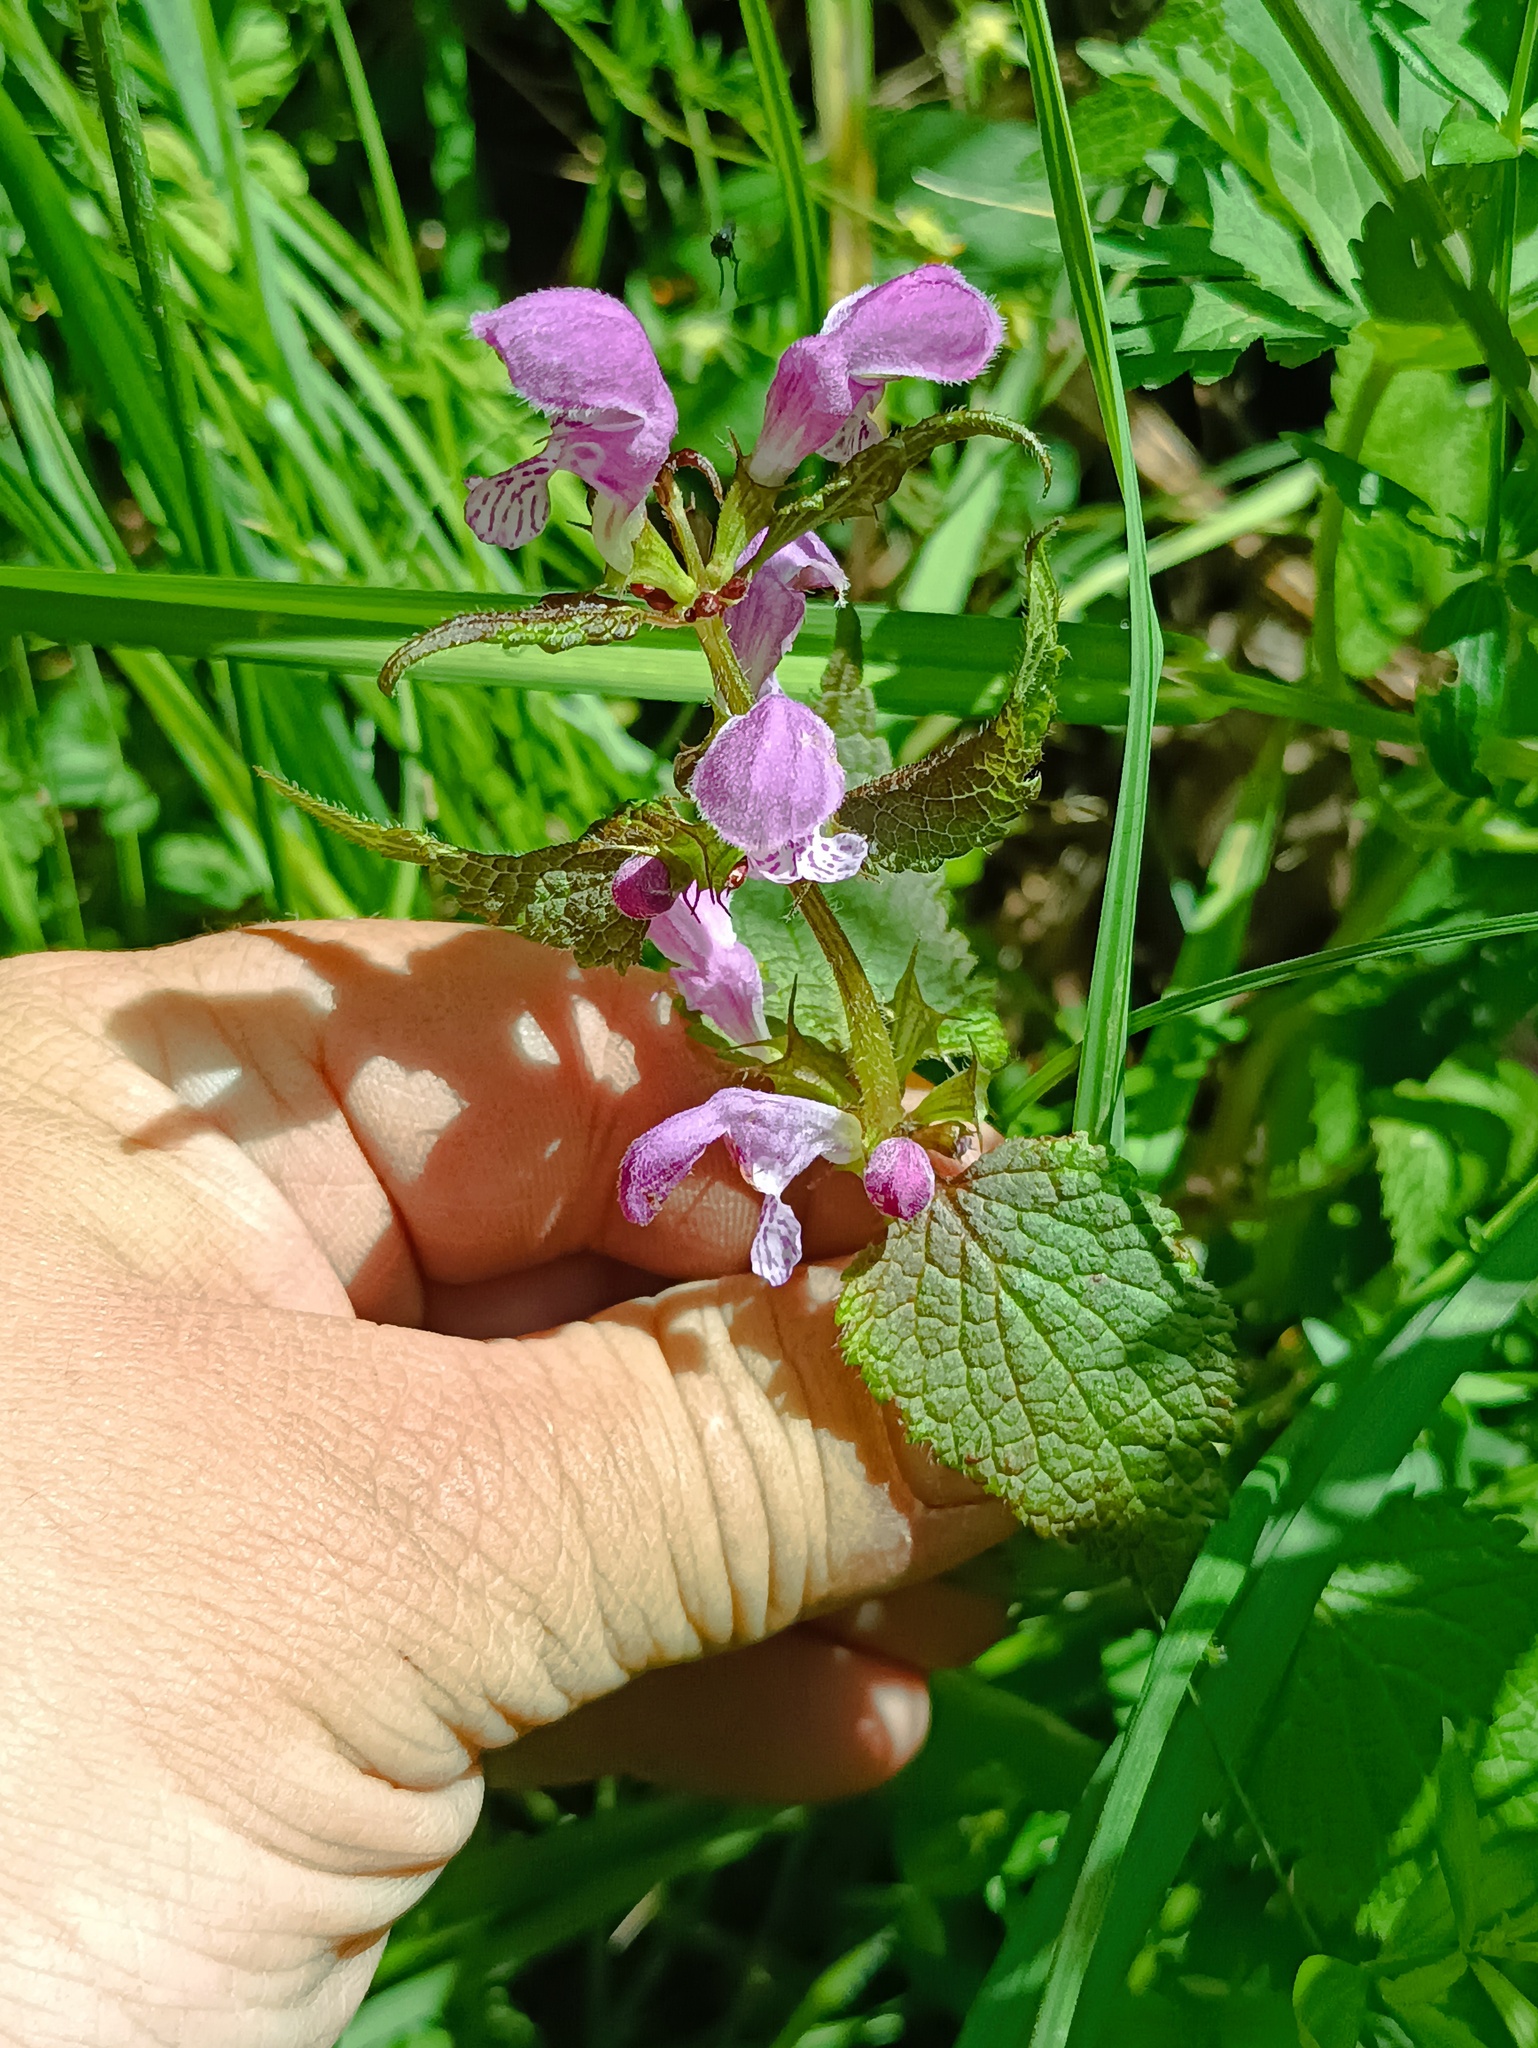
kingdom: Plantae
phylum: Tracheophyta
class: Magnoliopsida
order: Lamiales
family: Lamiaceae
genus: Lamium
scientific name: Lamium maculatum
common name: Spotted dead-nettle
